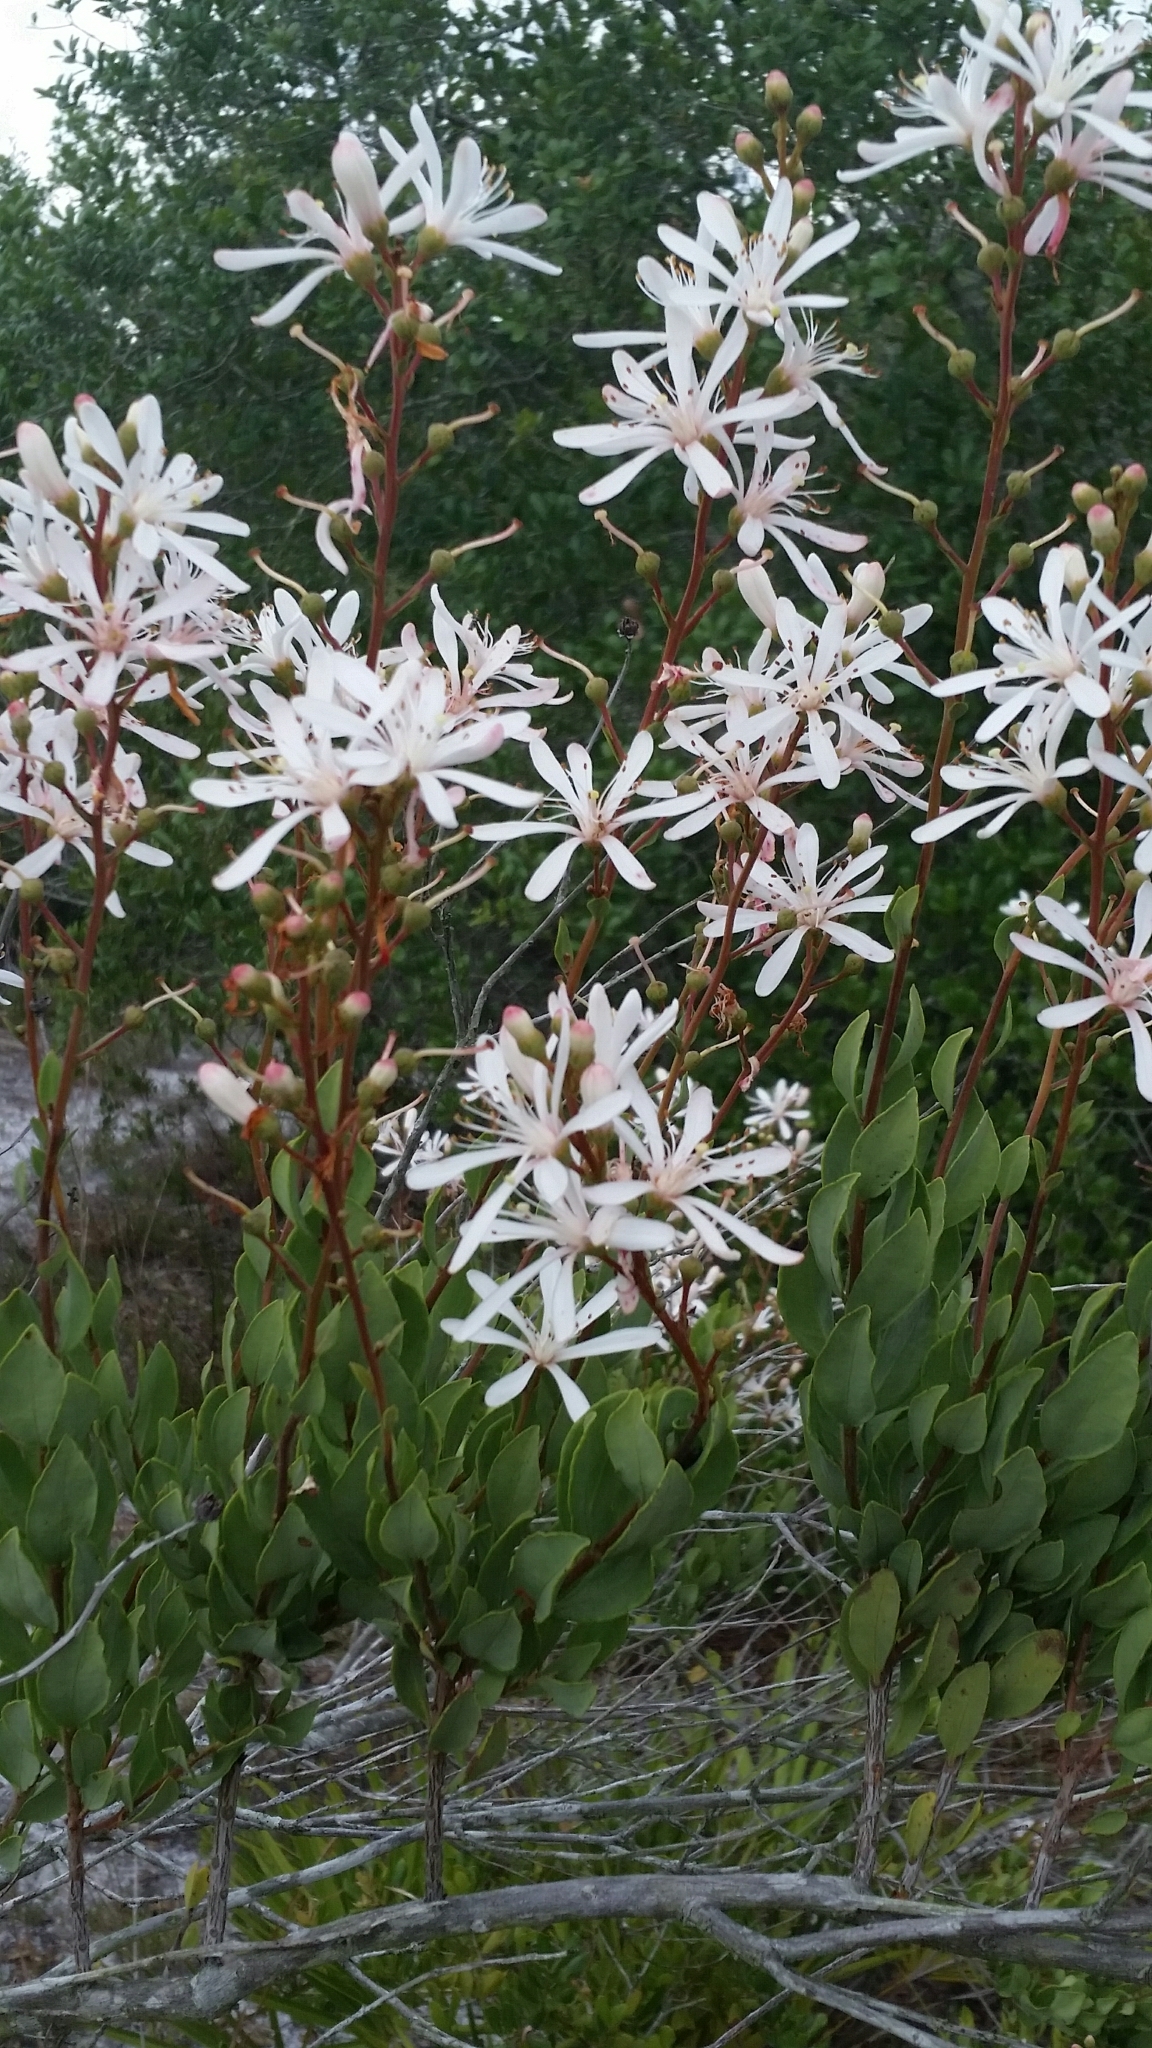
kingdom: Plantae
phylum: Tracheophyta
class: Magnoliopsida
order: Ericales
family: Ericaceae
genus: Bejaria
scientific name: Bejaria racemosa
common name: Tarflower
